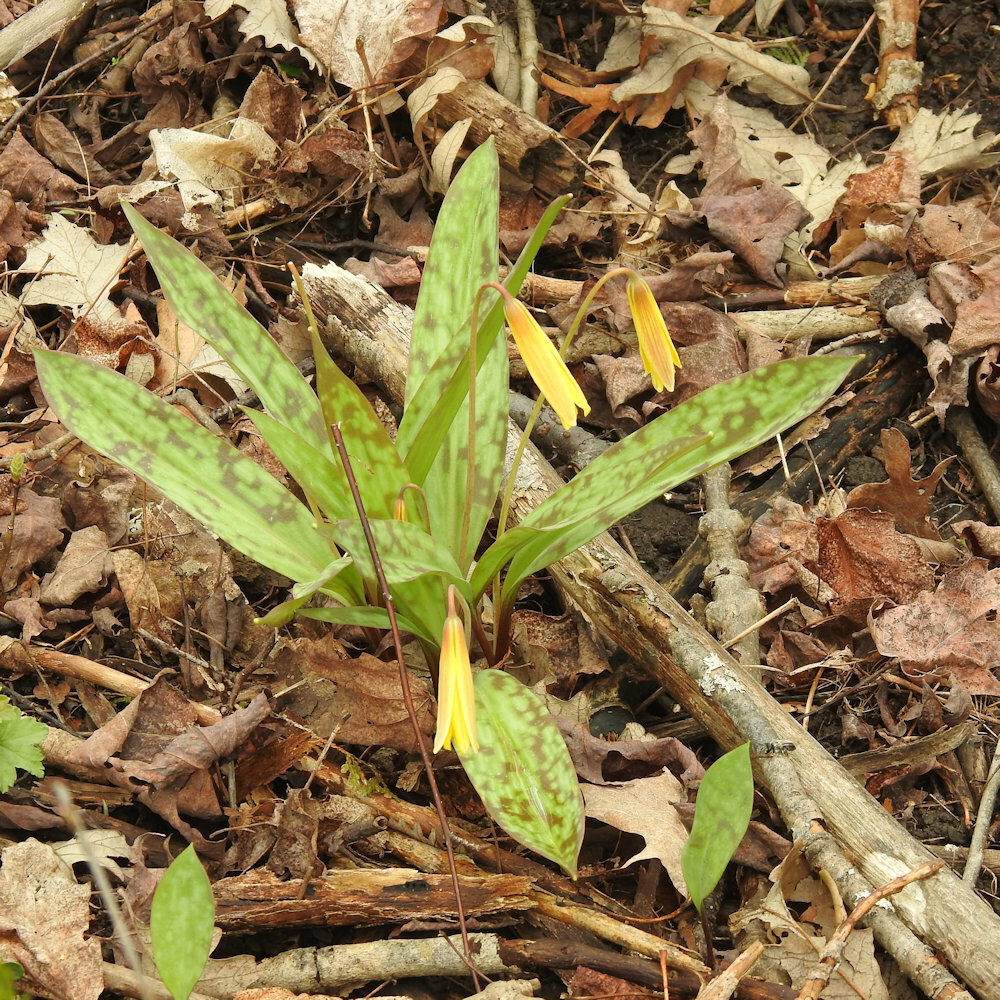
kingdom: Plantae
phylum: Tracheophyta
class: Liliopsida
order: Liliales
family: Liliaceae
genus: Erythronium
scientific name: Erythronium americanum
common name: Yellow adder's-tongue
